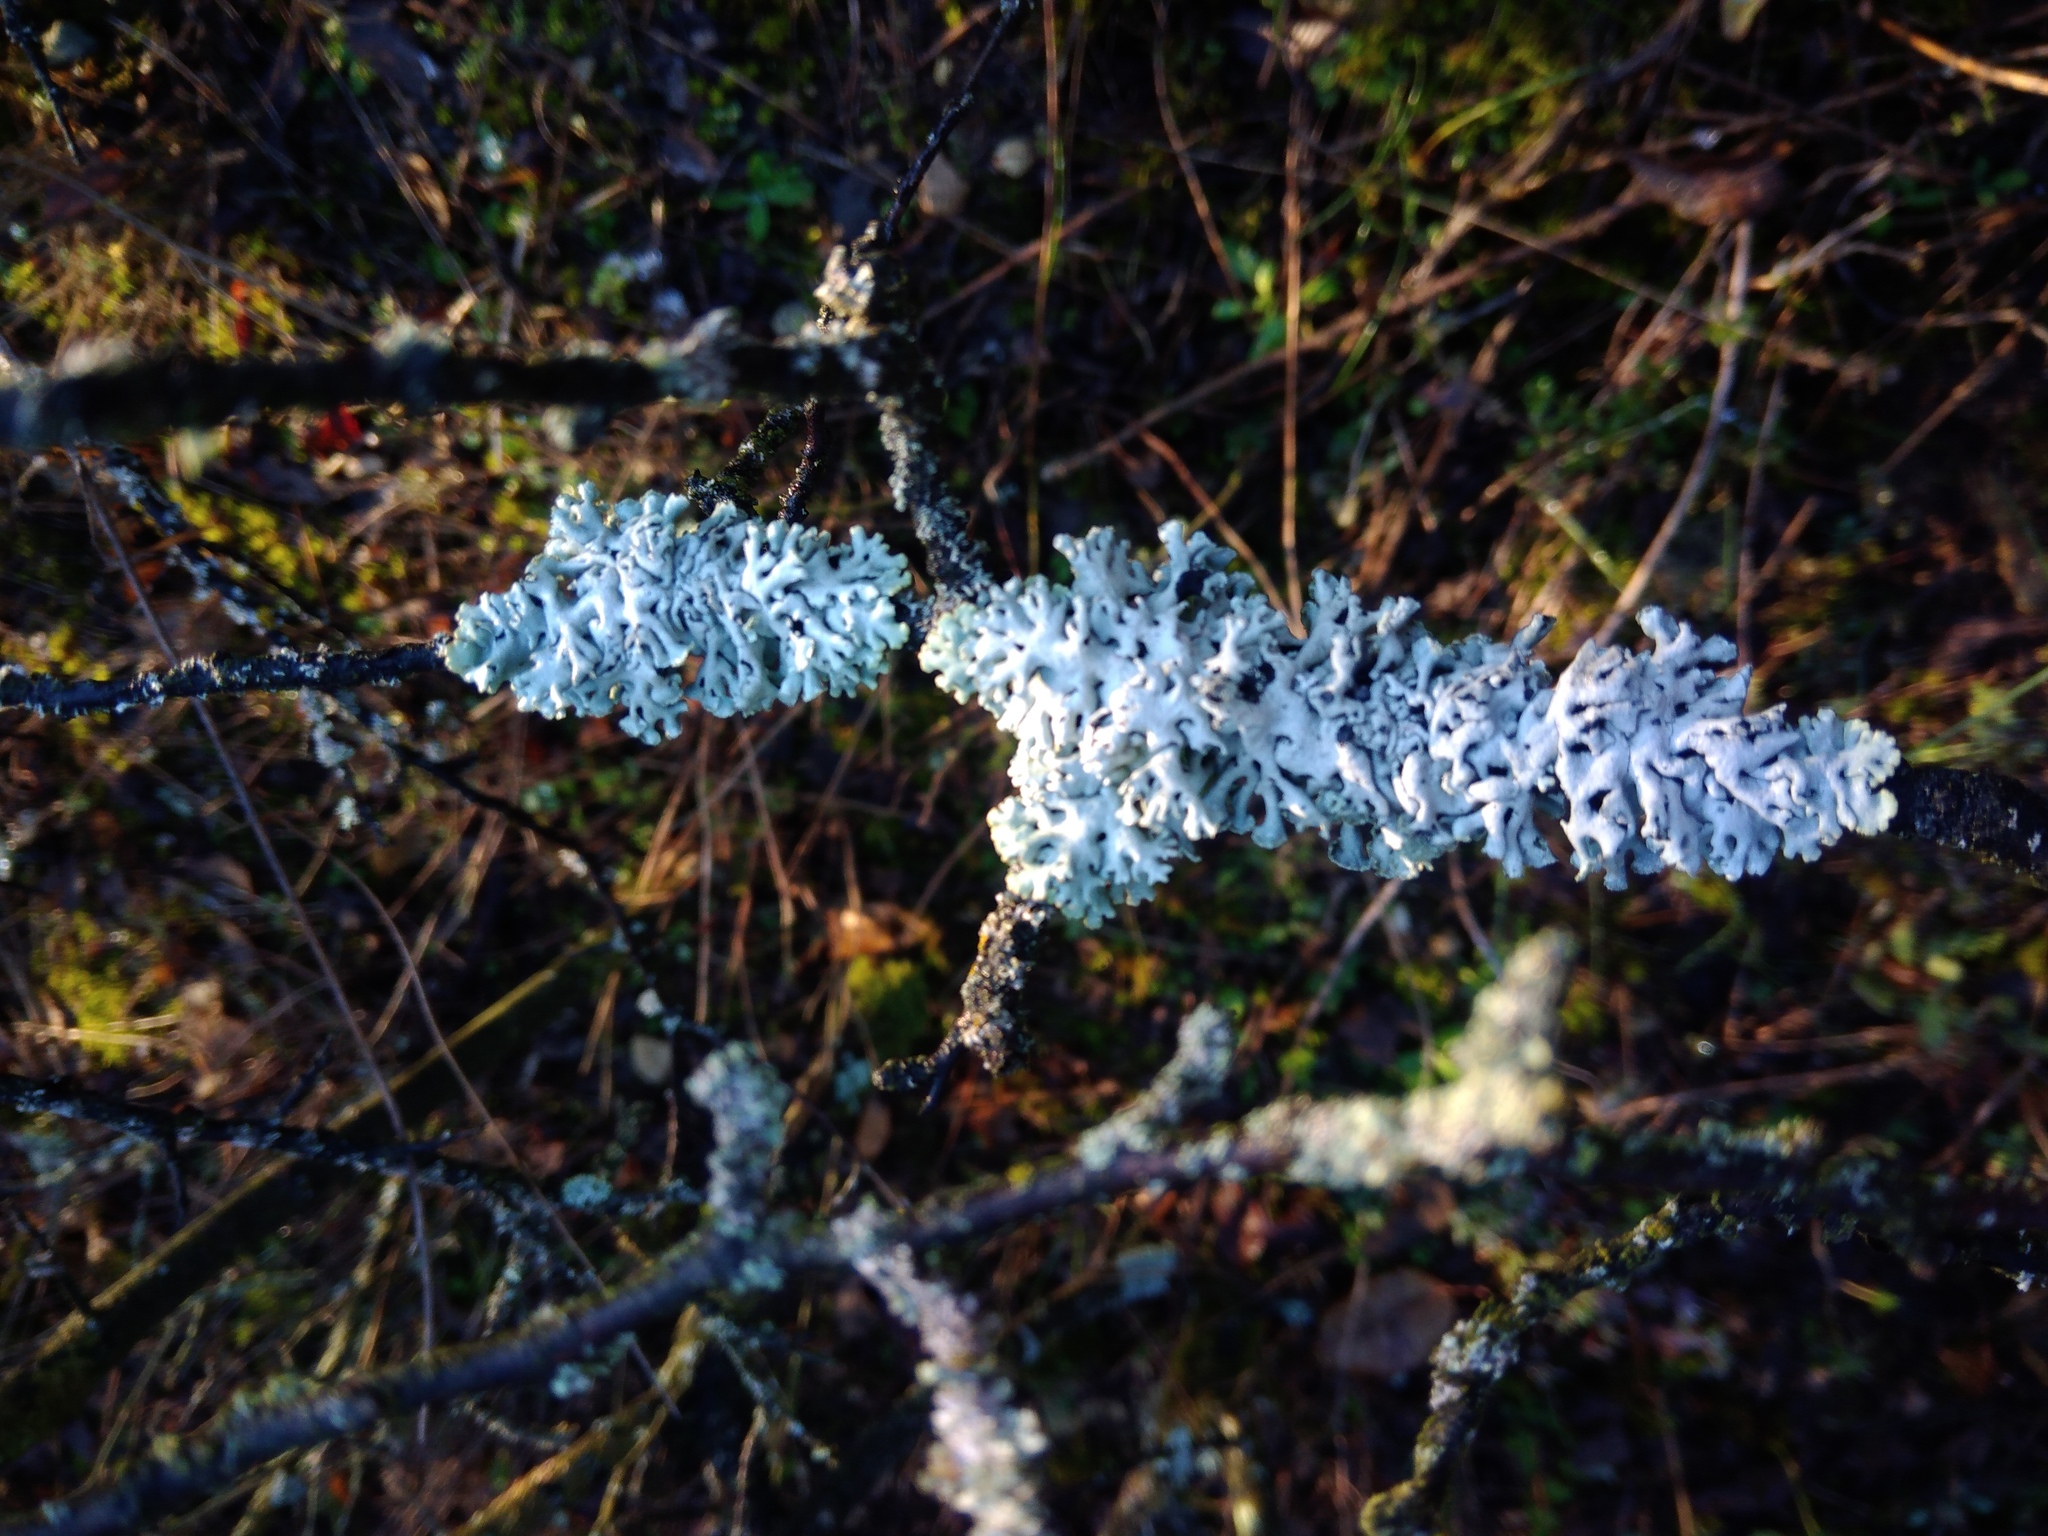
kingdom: Fungi
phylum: Ascomycota
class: Lecanoromycetes
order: Lecanorales
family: Parmeliaceae
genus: Hypogymnia
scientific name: Hypogymnia physodes
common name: Dark crottle
